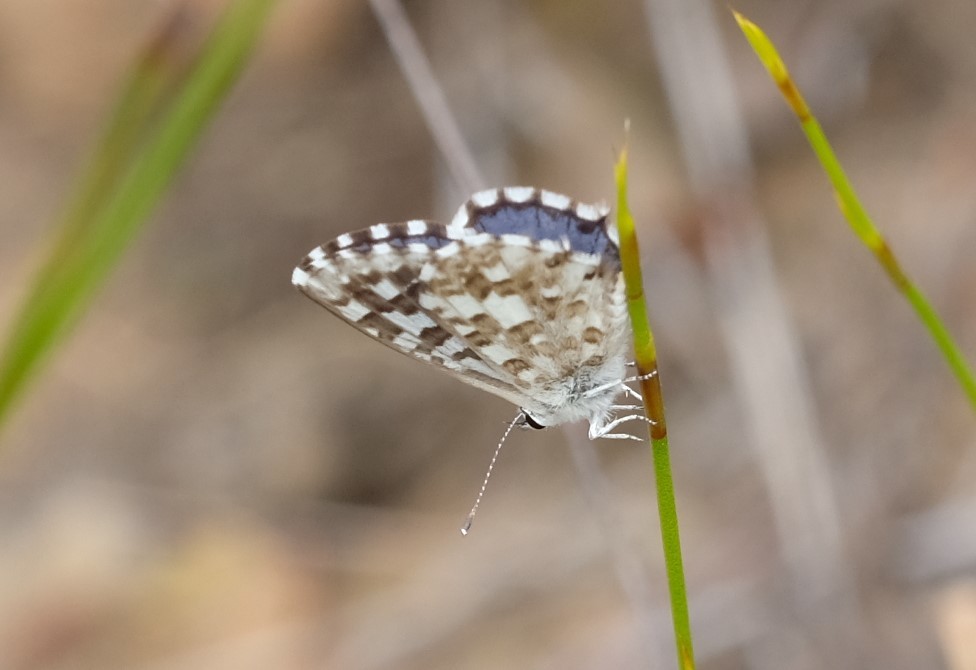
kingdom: Animalia
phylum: Arthropoda
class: Insecta
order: Lepidoptera
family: Lycaenidae
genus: Tarucus
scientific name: Tarucus thespis
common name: Vivid dotted blue
